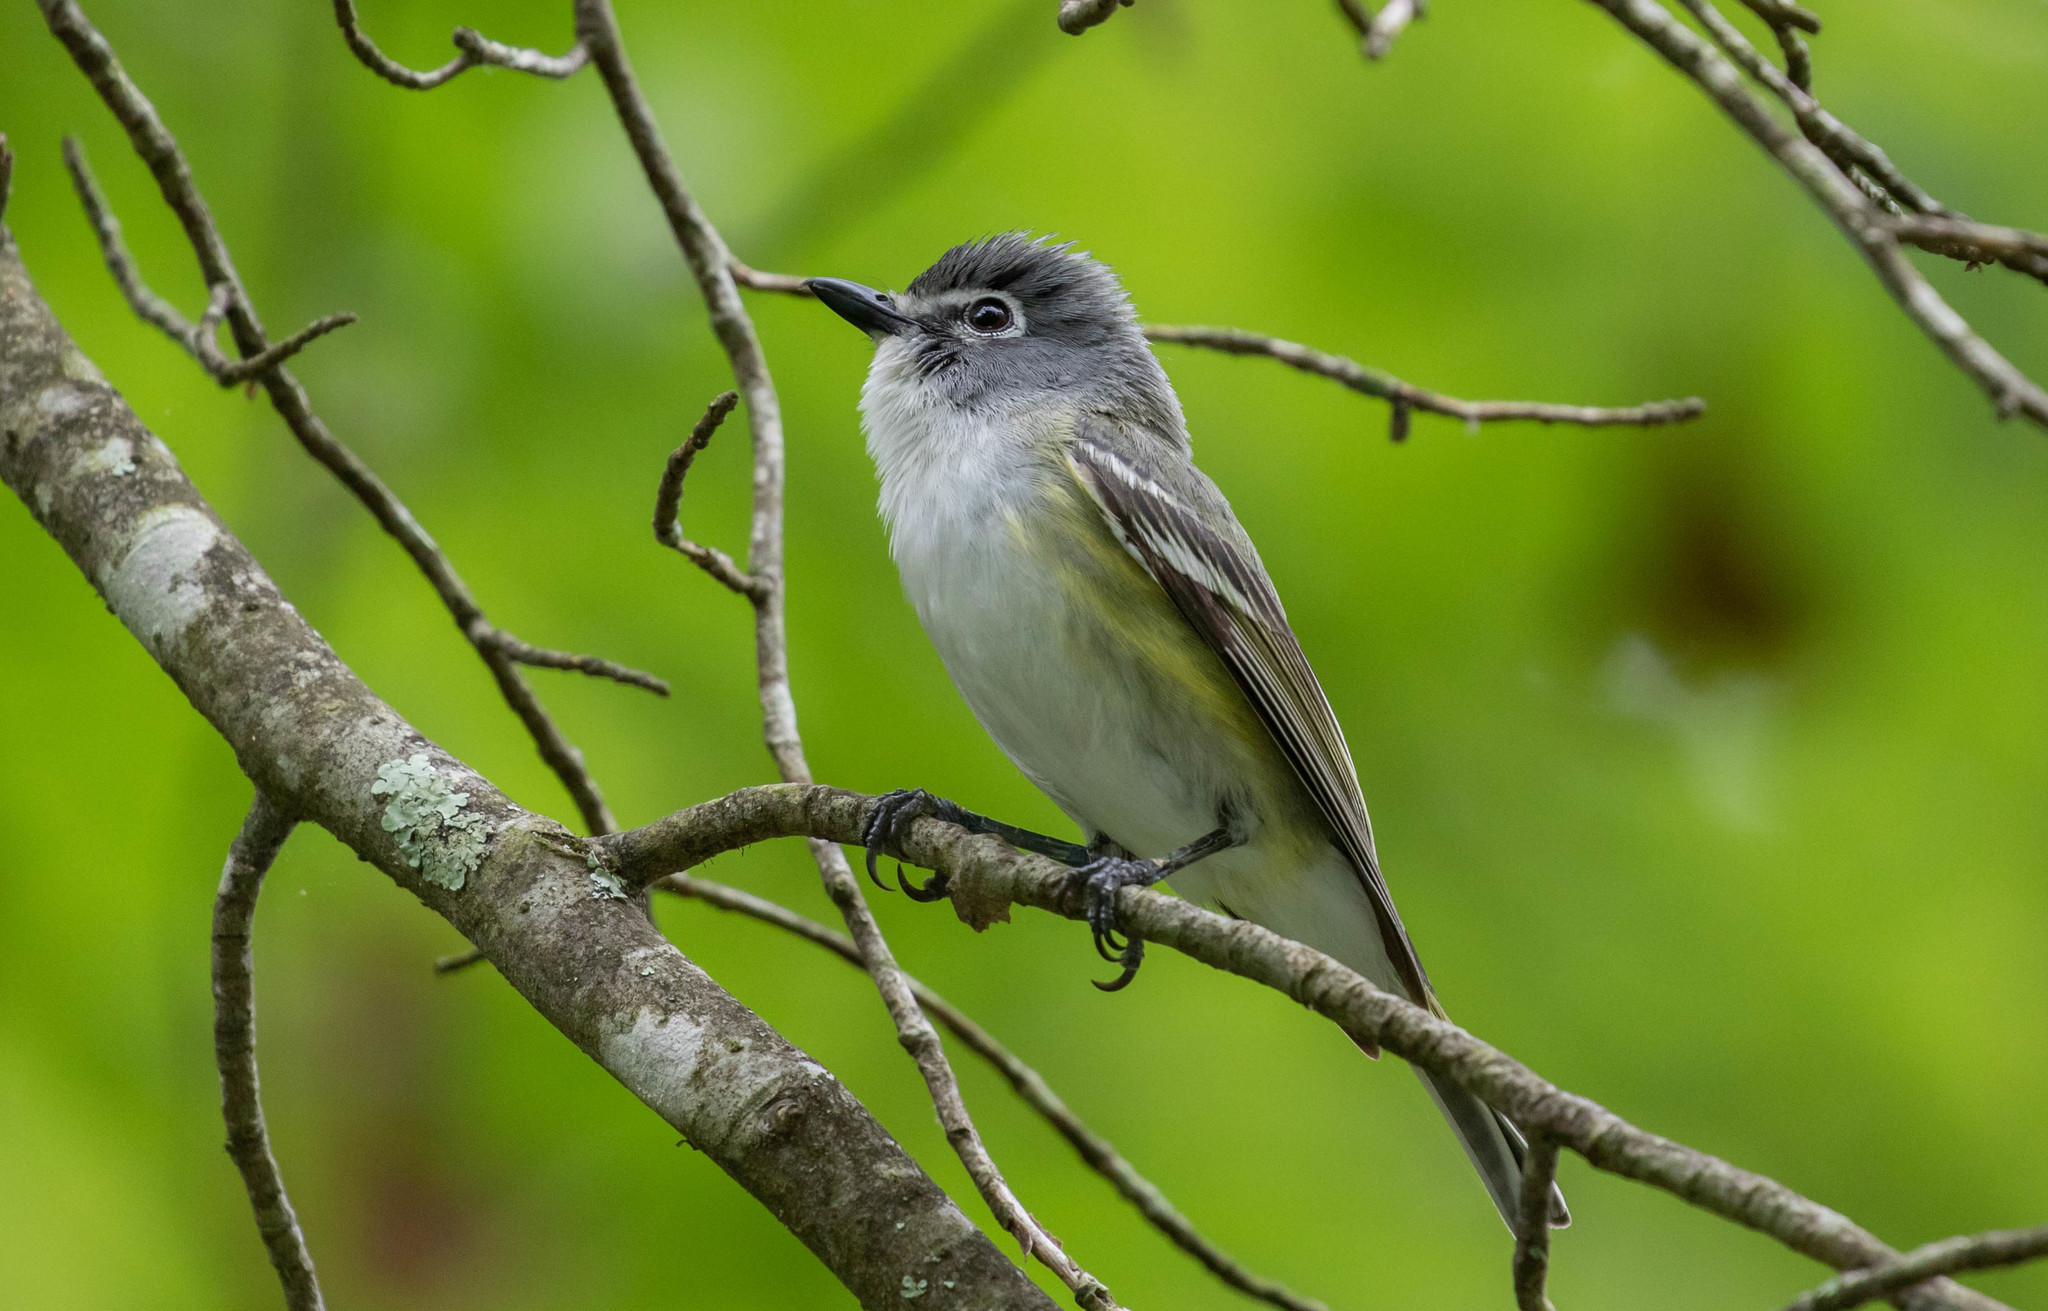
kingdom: Animalia
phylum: Chordata
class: Aves
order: Passeriformes
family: Vireonidae
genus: Vireo
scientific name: Vireo solitarius
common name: Blue-headed vireo
